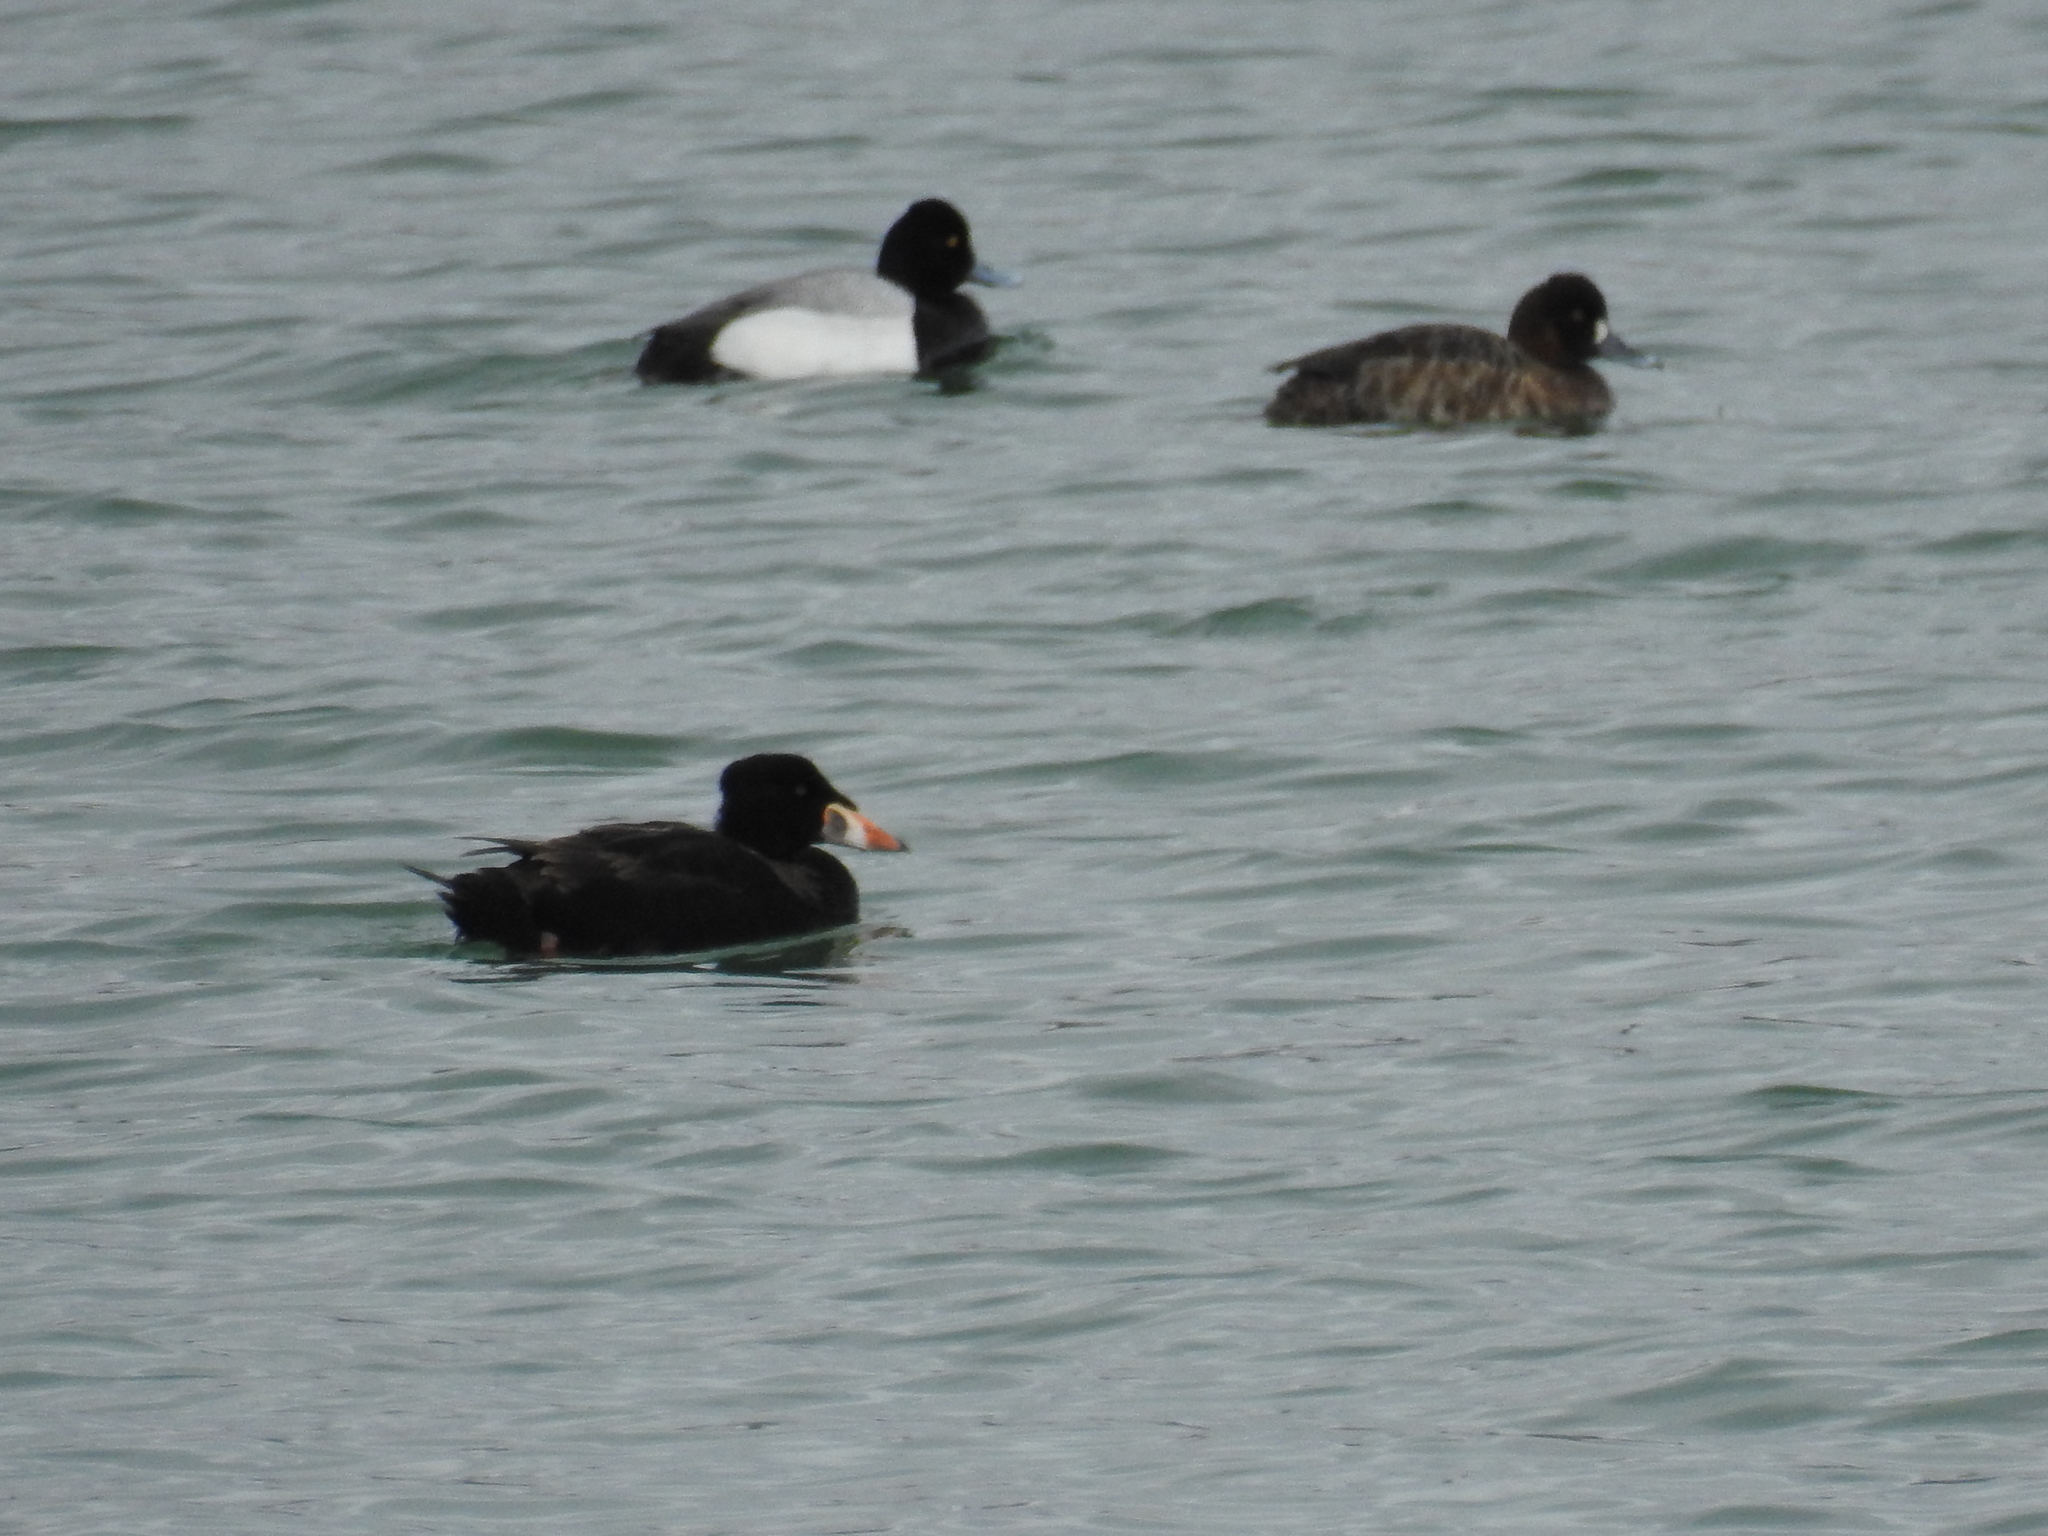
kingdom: Animalia
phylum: Chordata
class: Aves
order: Anseriformes
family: Anatidae
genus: Melanitta
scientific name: Melanitta perspicillata
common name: Surf scoter
